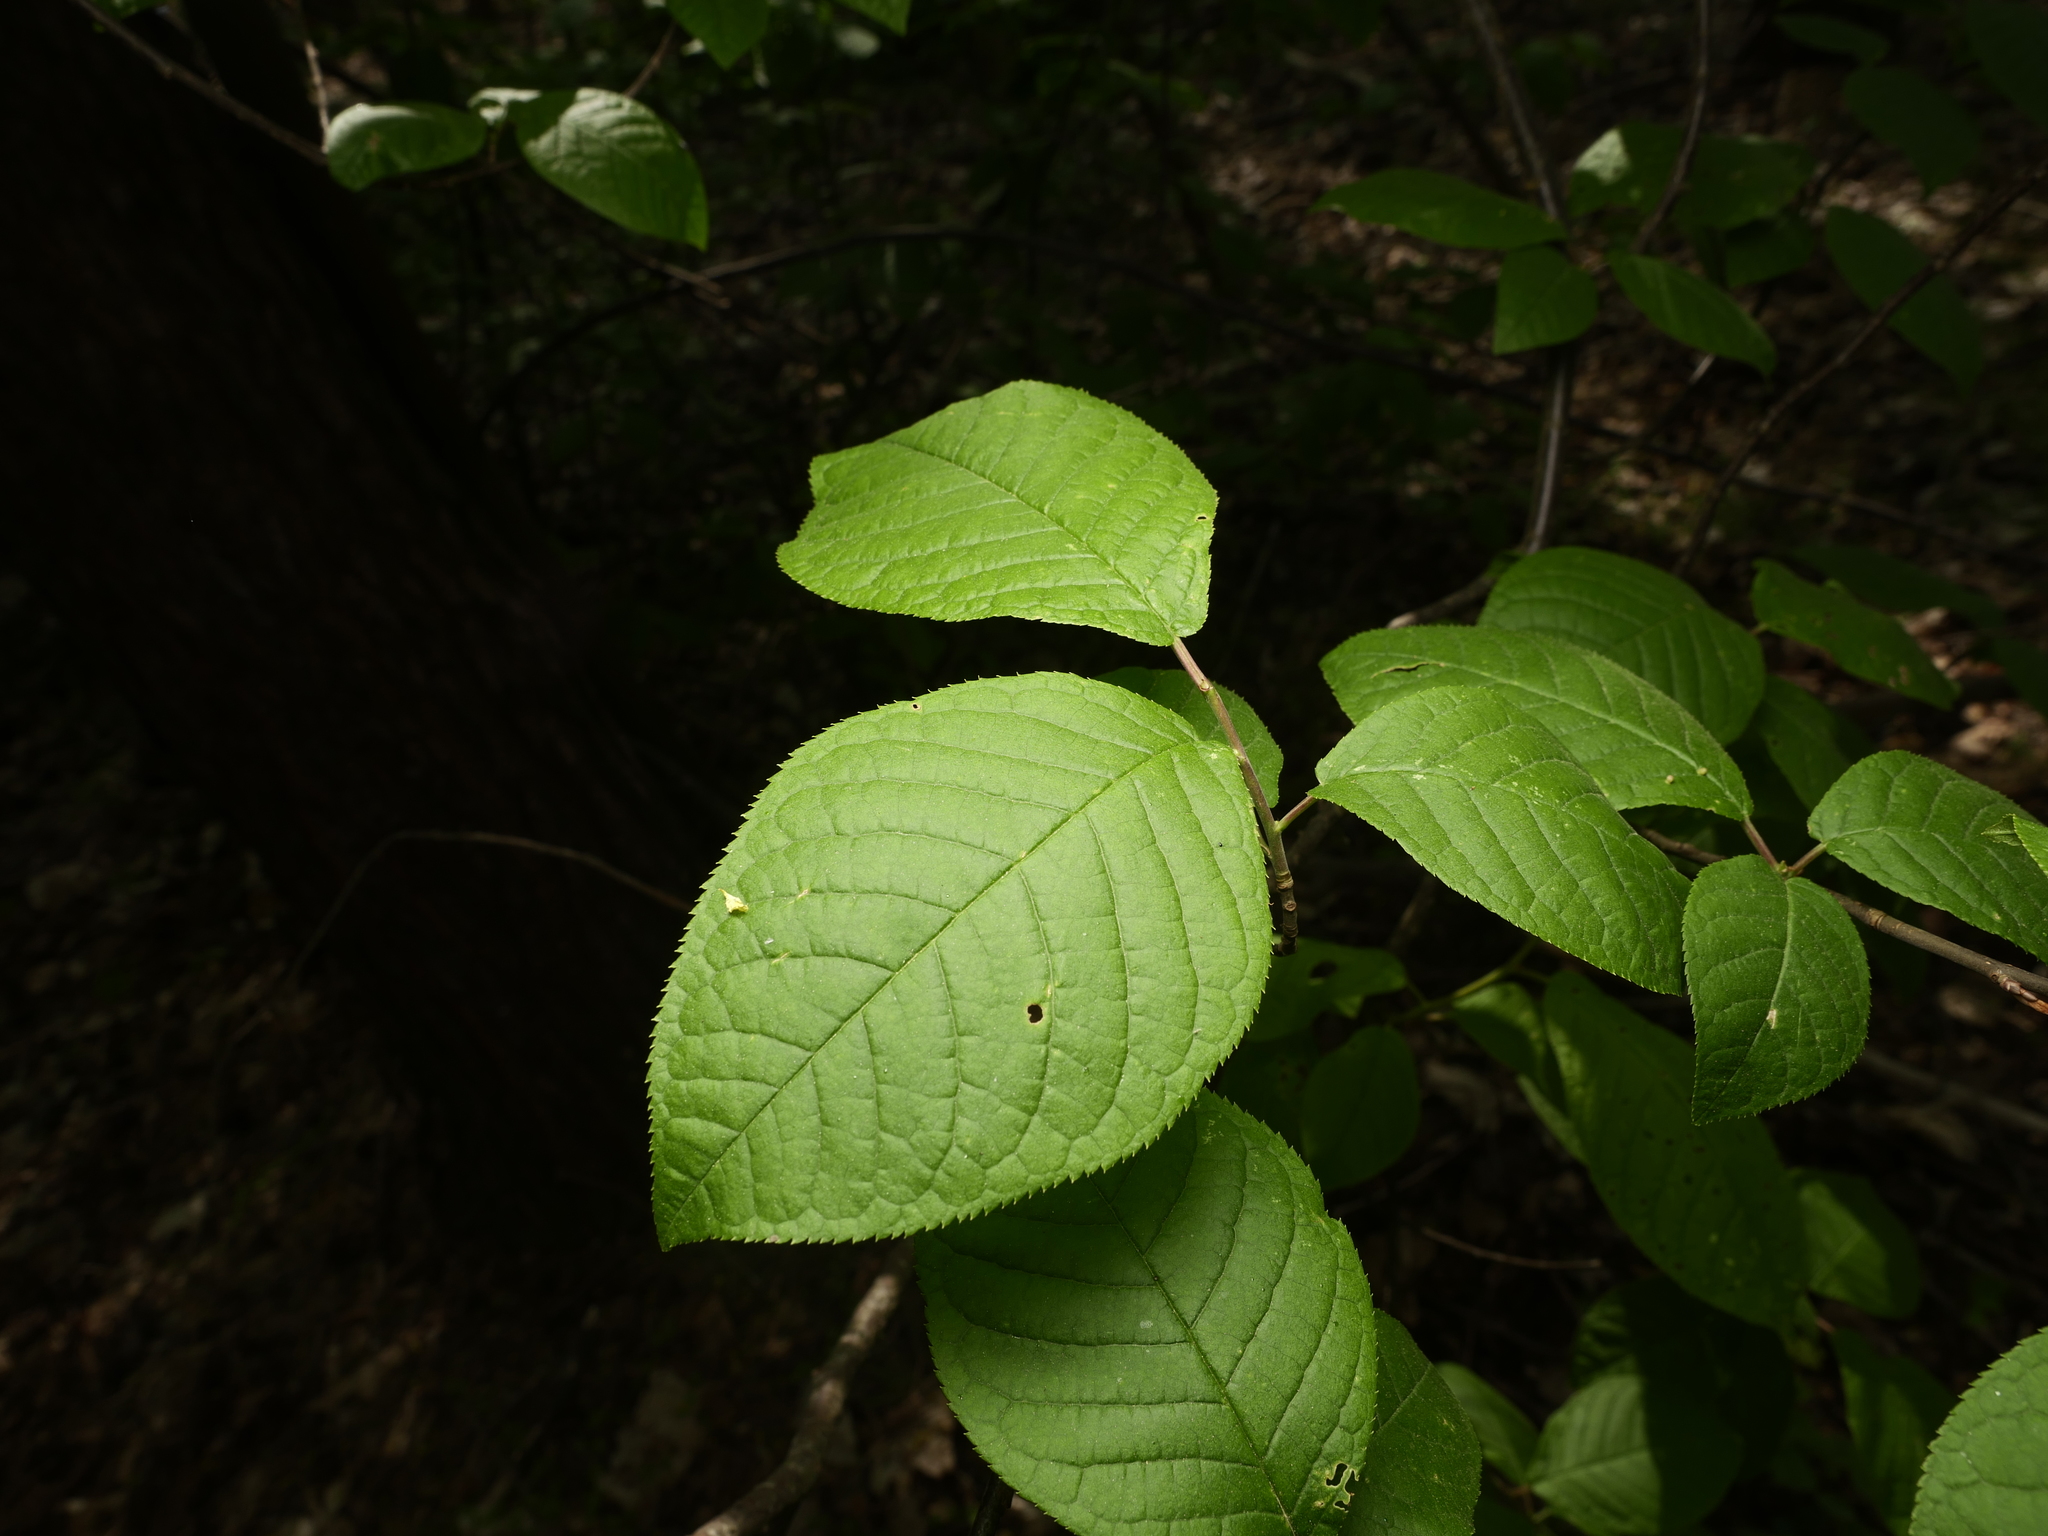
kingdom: Plantae
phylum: Tracheophyta
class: Magnoliopsida
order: Rosales
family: Rosaceae
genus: Prunus
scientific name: Prunus padus
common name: Bird cherry
